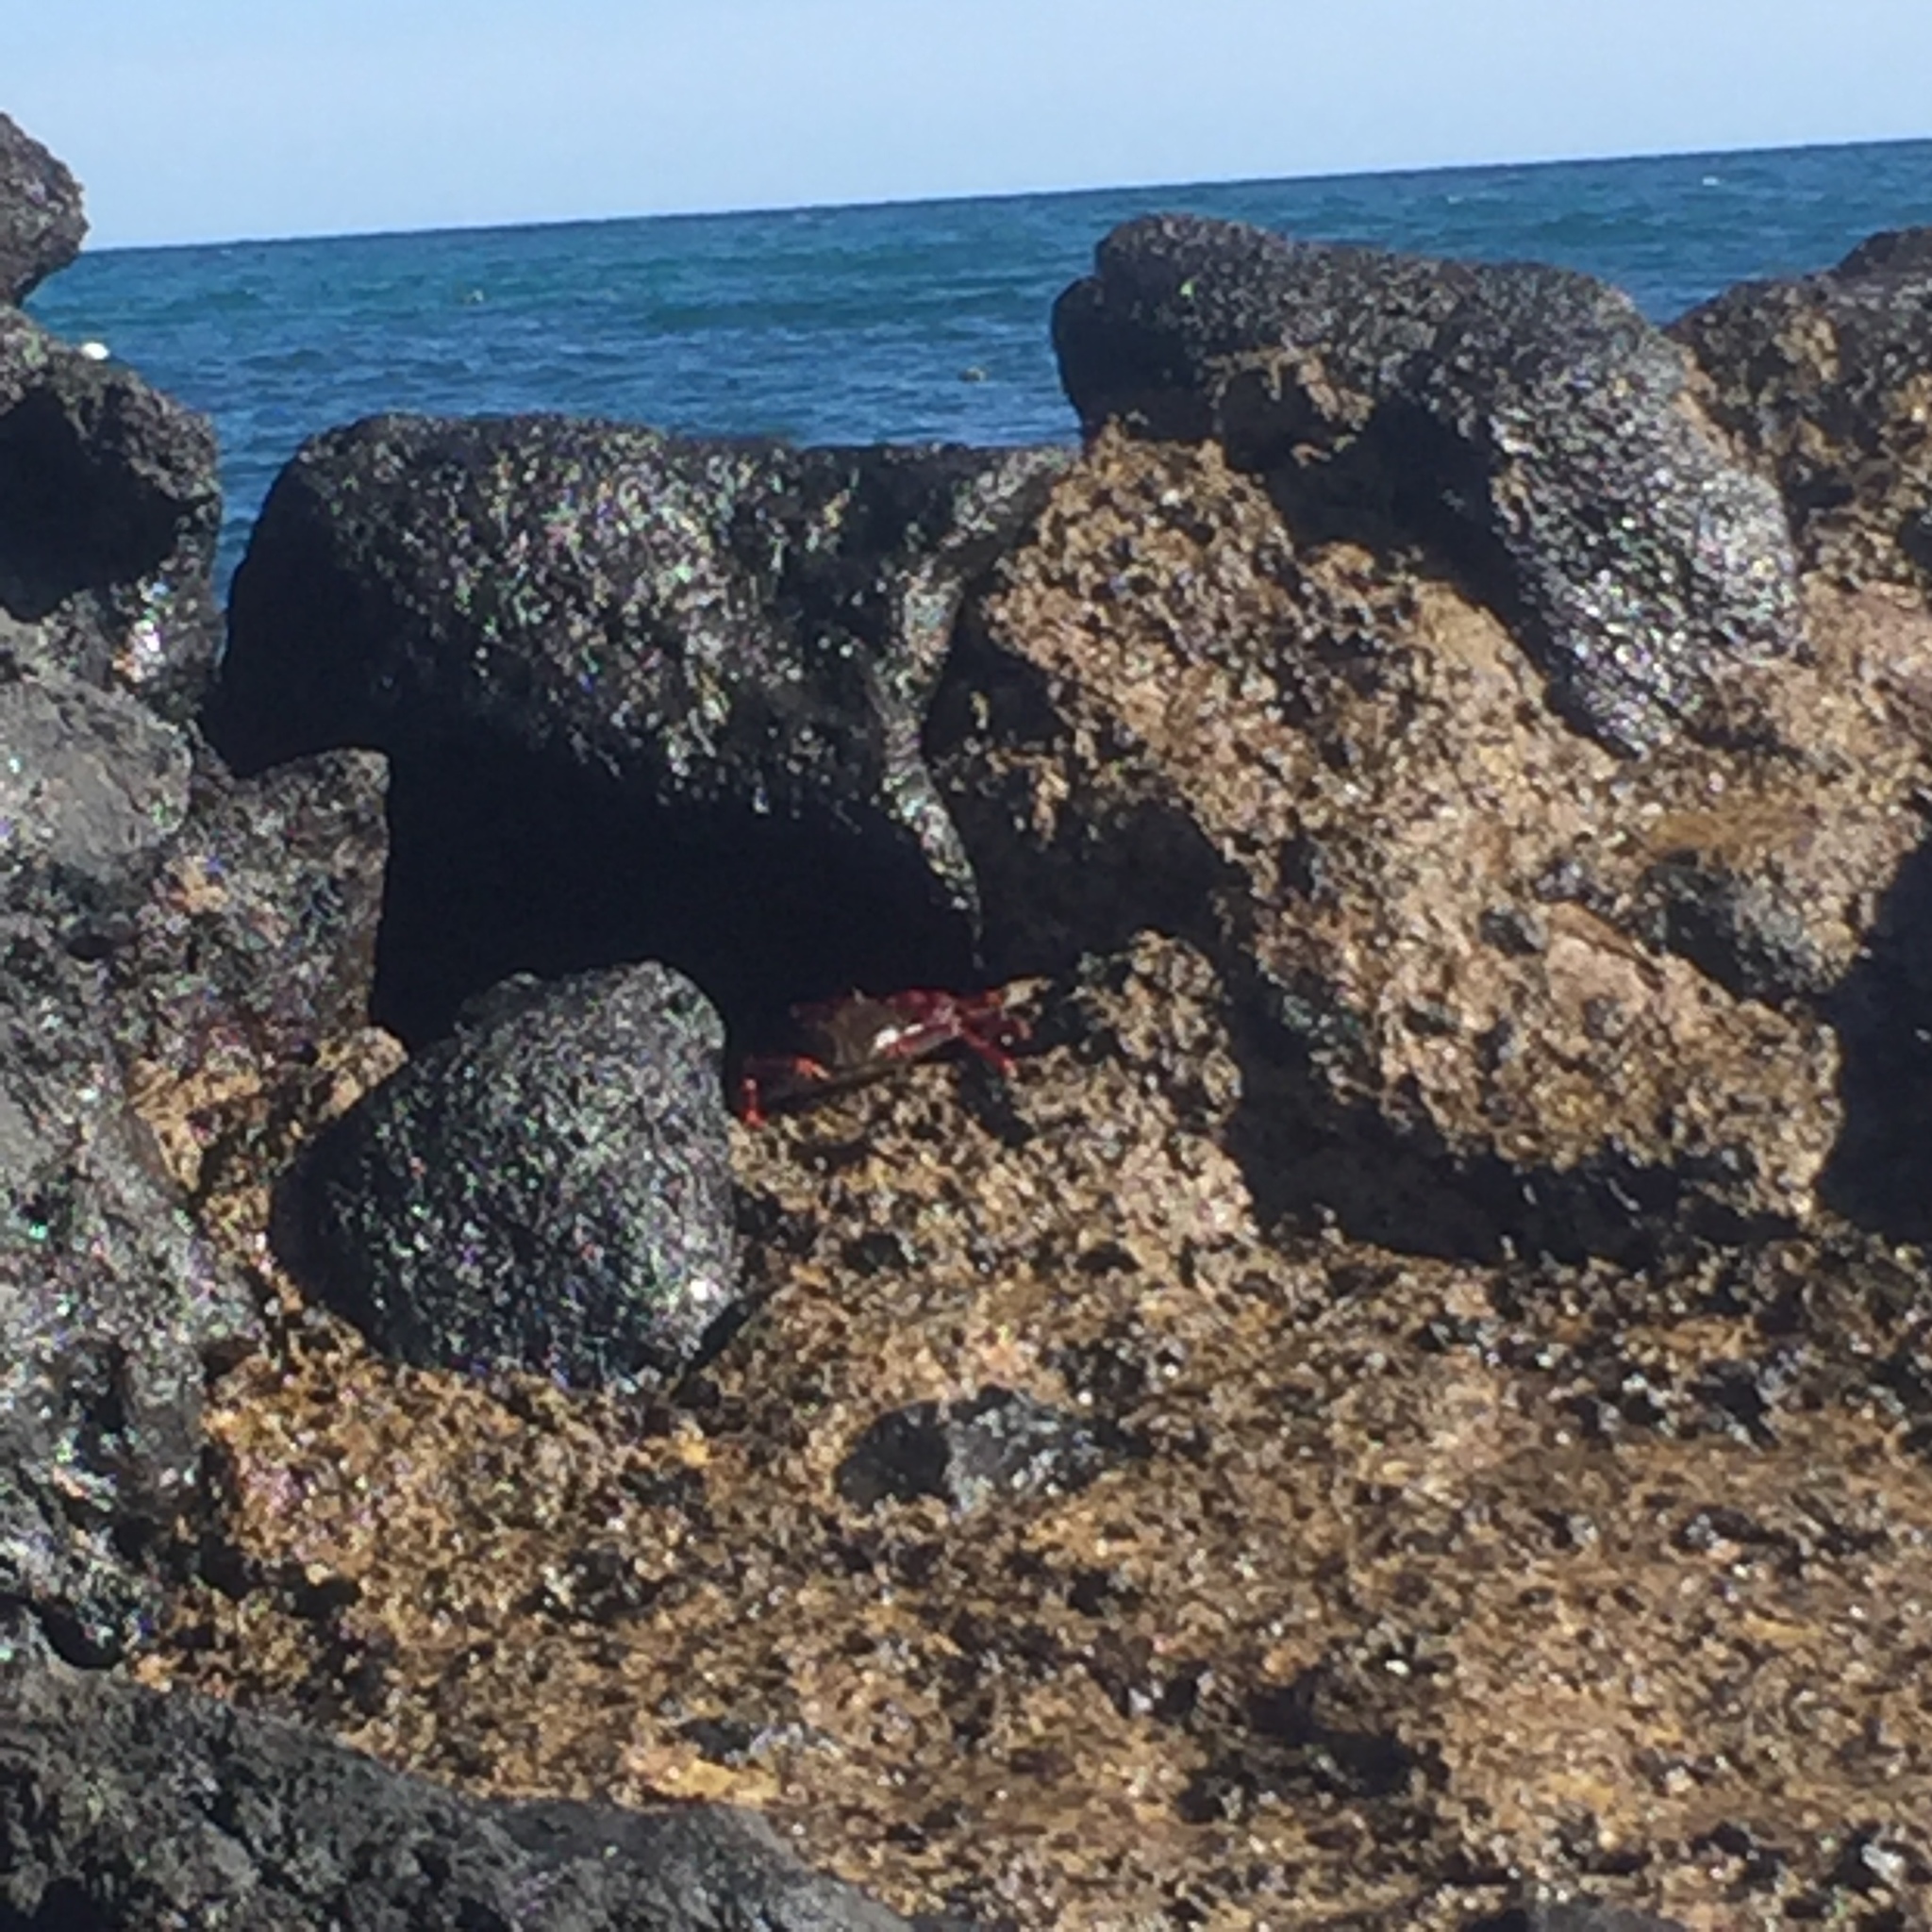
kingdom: Animalia
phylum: Arthropoda
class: Malacostraca
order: Decapoda
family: Grapsidae
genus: Grapsus
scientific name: Grapsus adscensionis
